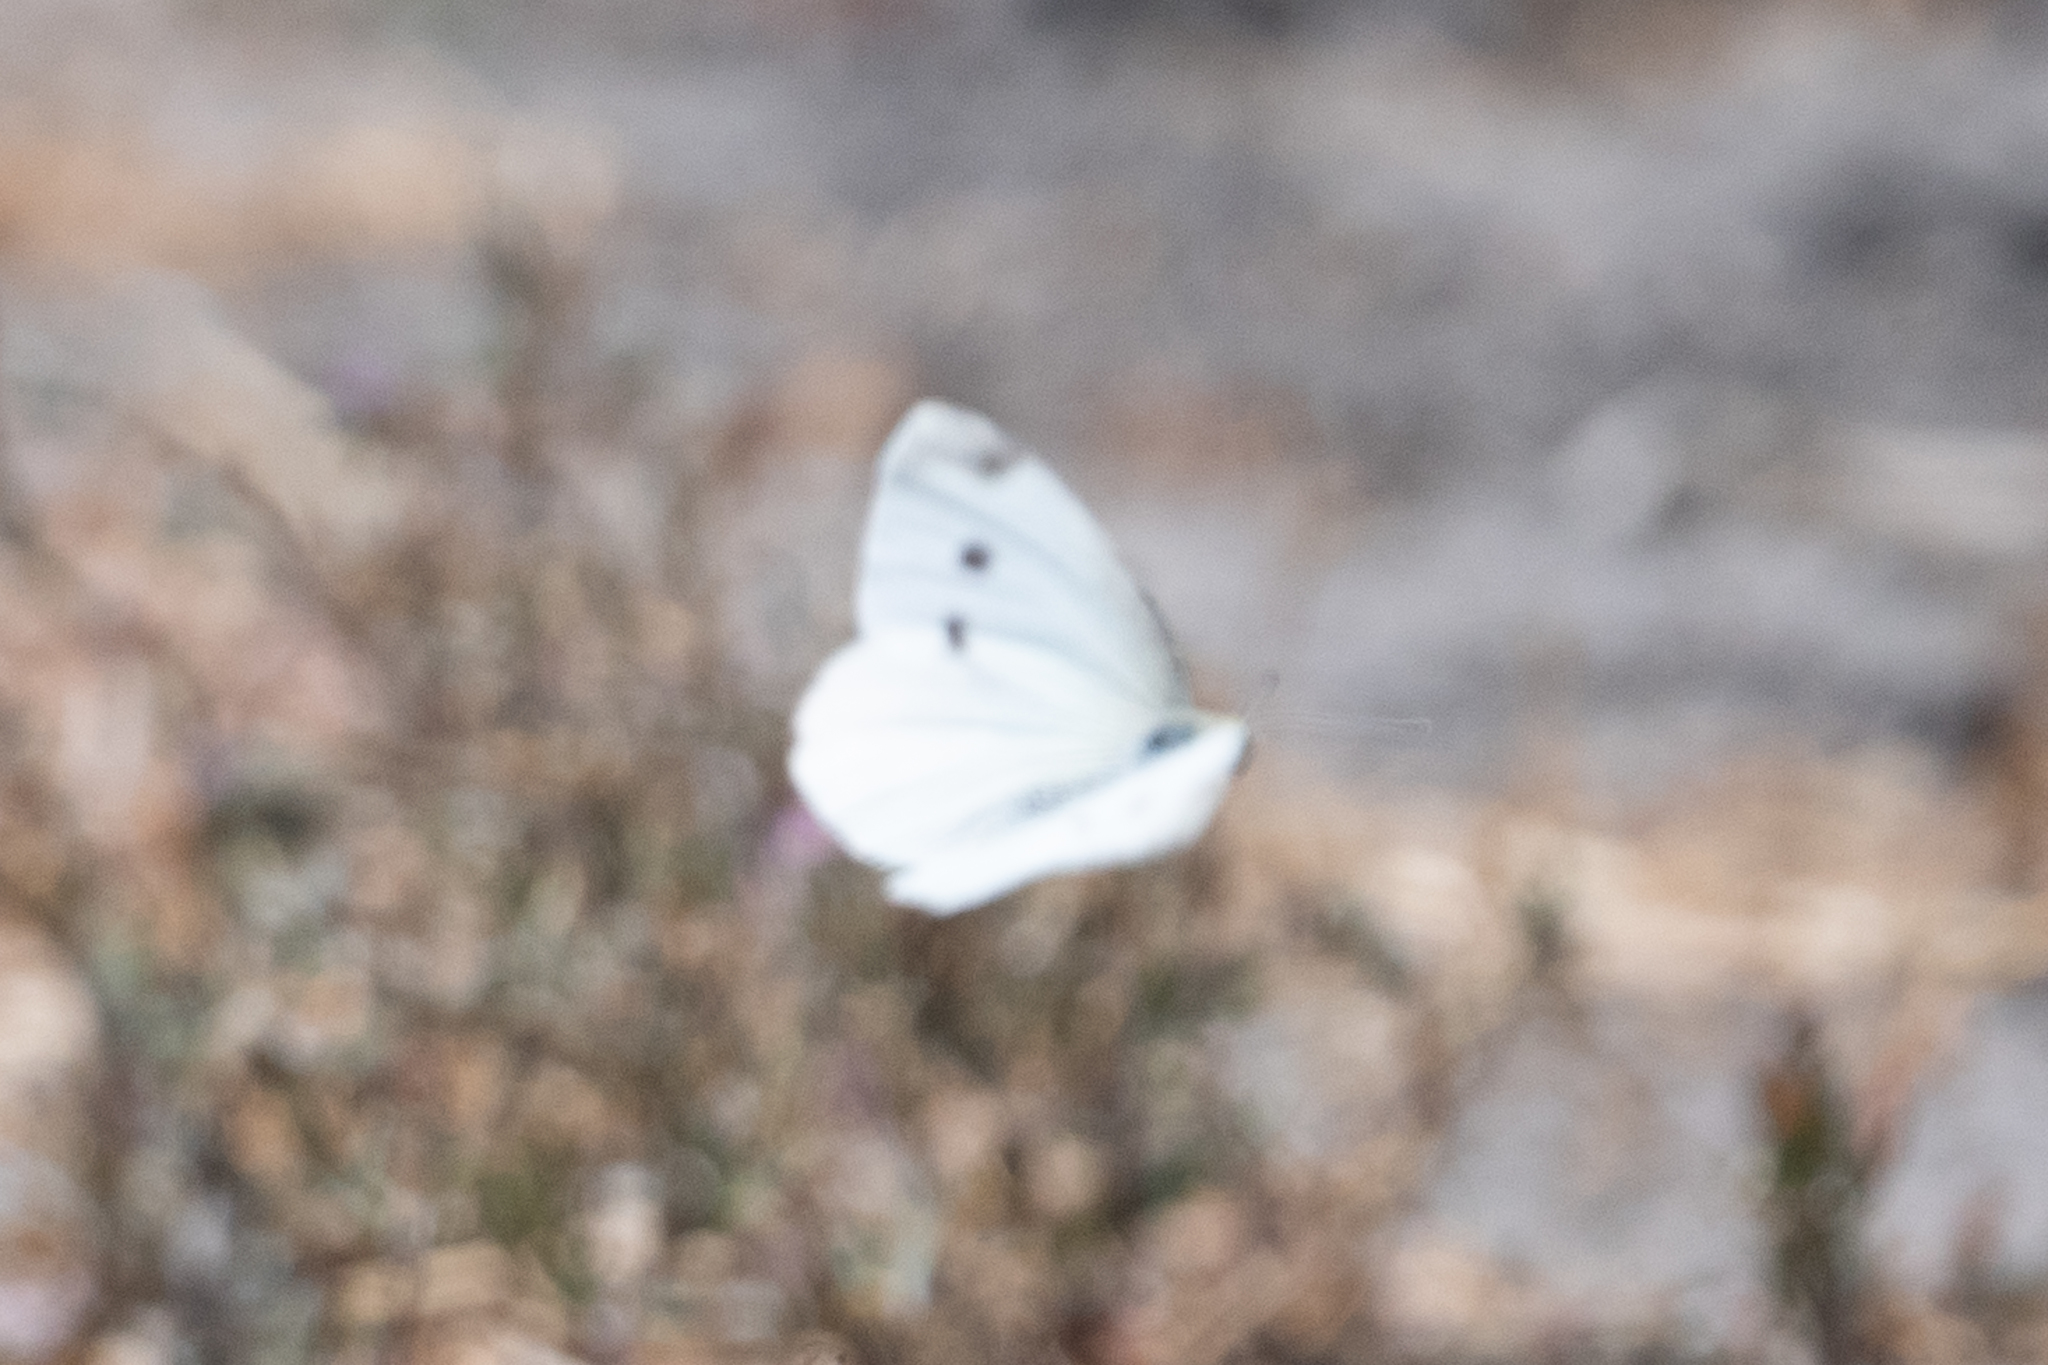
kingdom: Animalia
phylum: Arthropoda
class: Insecta
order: Lepidoptera
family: Pieridae
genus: Pieris
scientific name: Pieris rapae
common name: Small white
